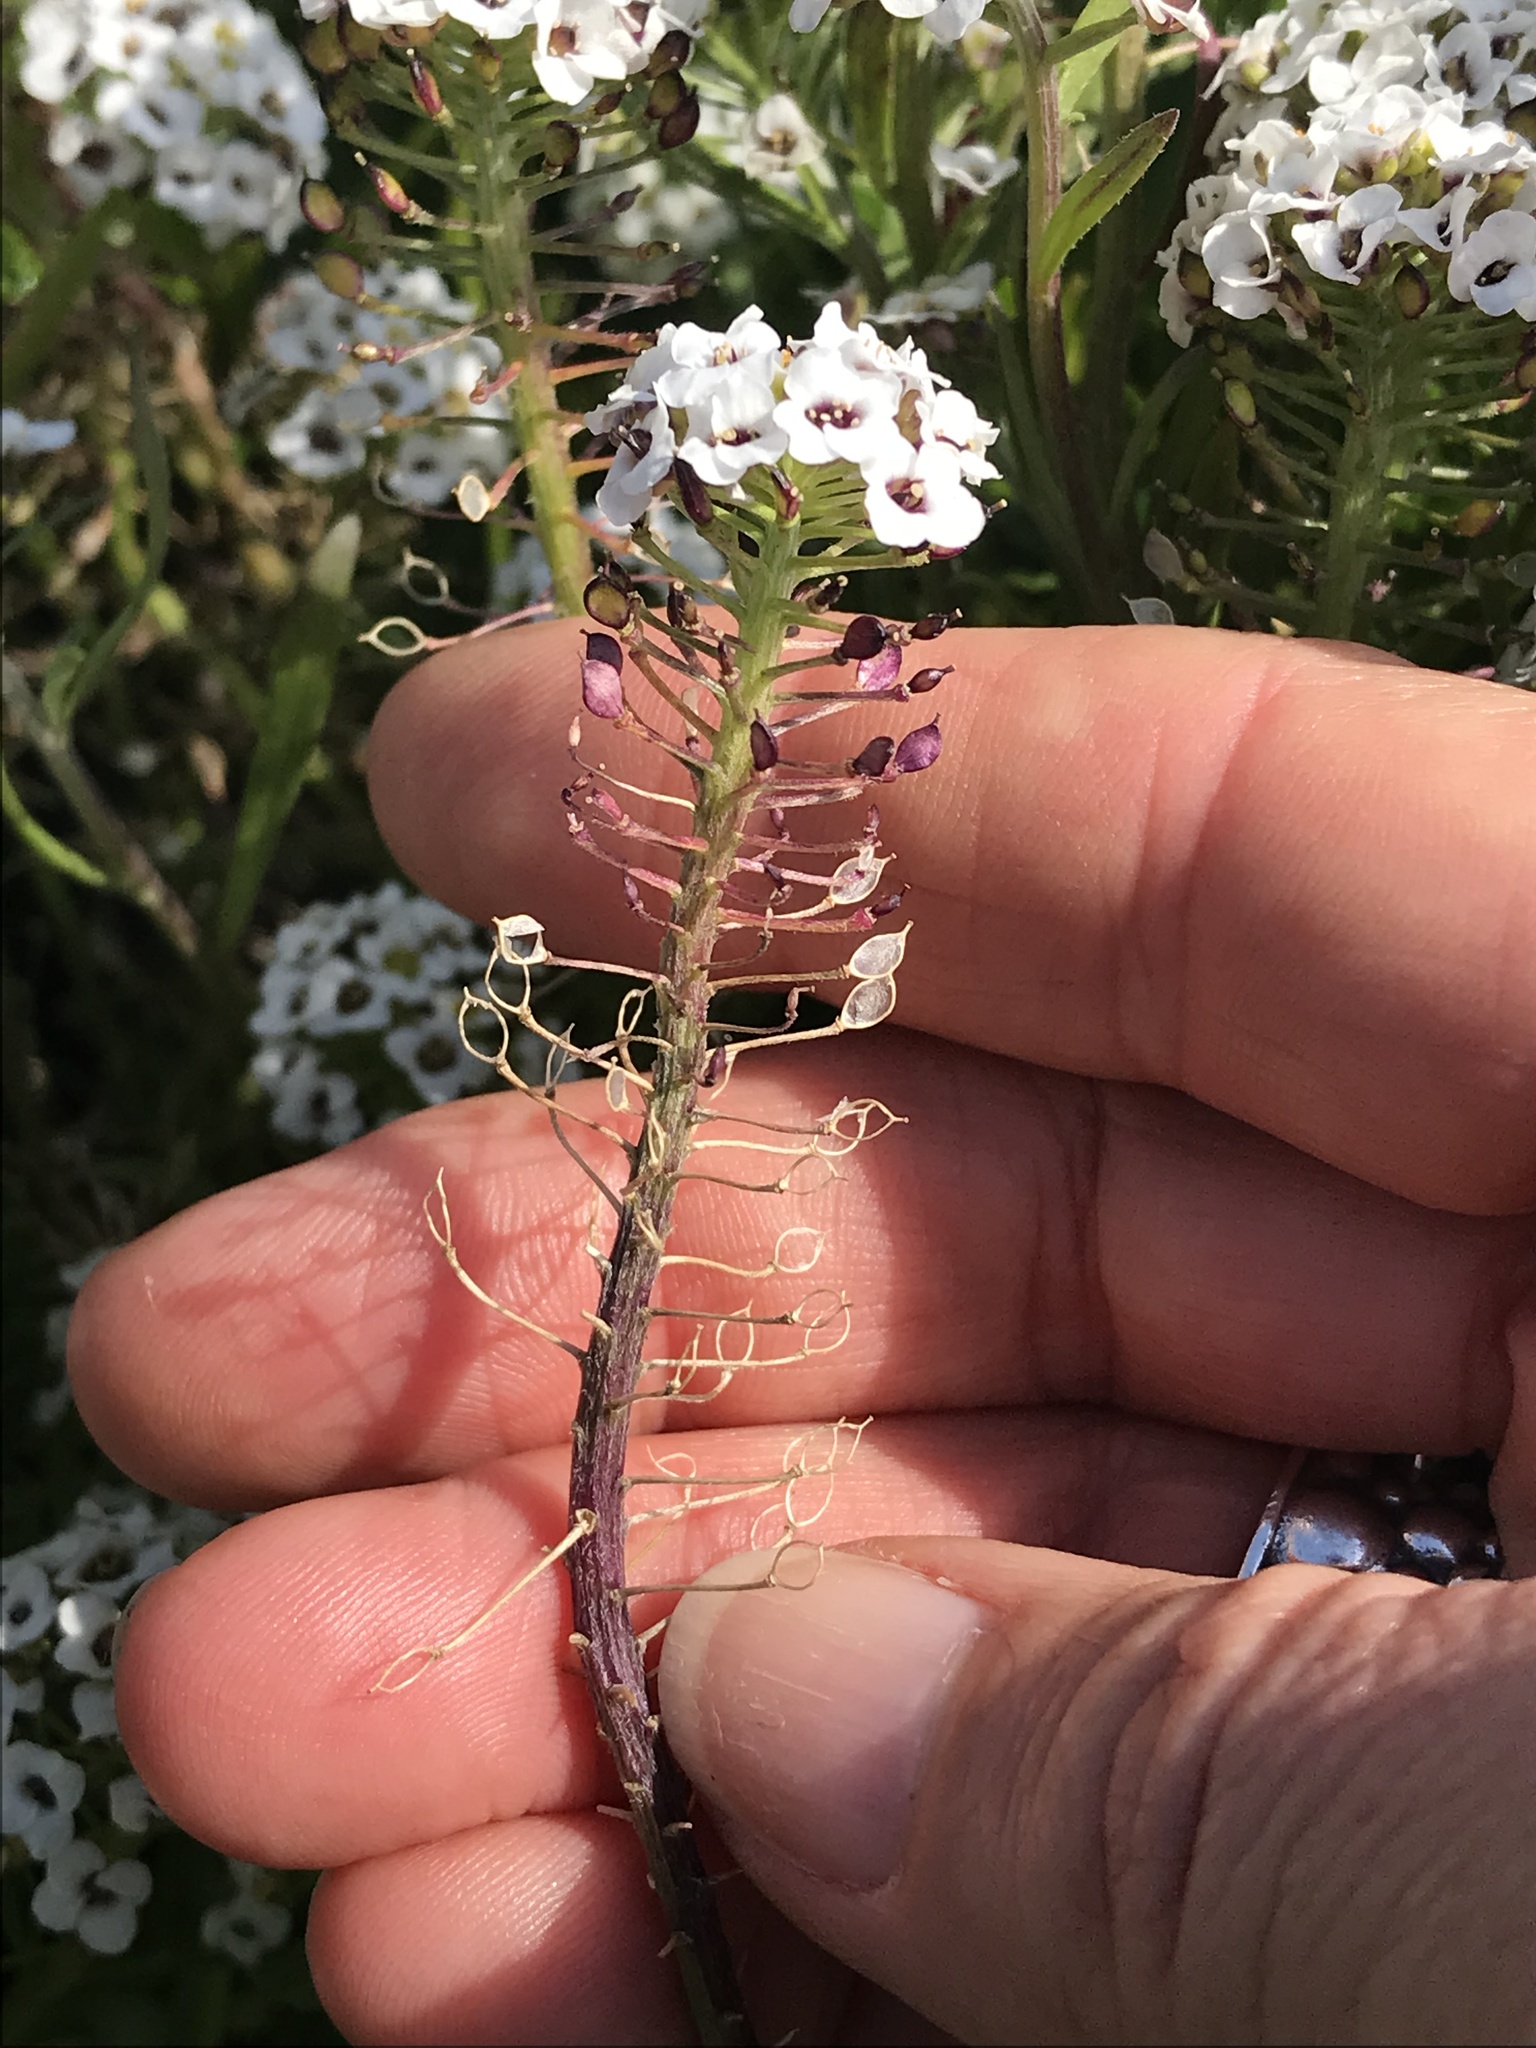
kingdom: Plantae
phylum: Tracheophyta
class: Magnoliopsida
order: Brassicales
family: Brassicaceae
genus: Lobularia
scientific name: Lobularia maritima
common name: Sweet alison
